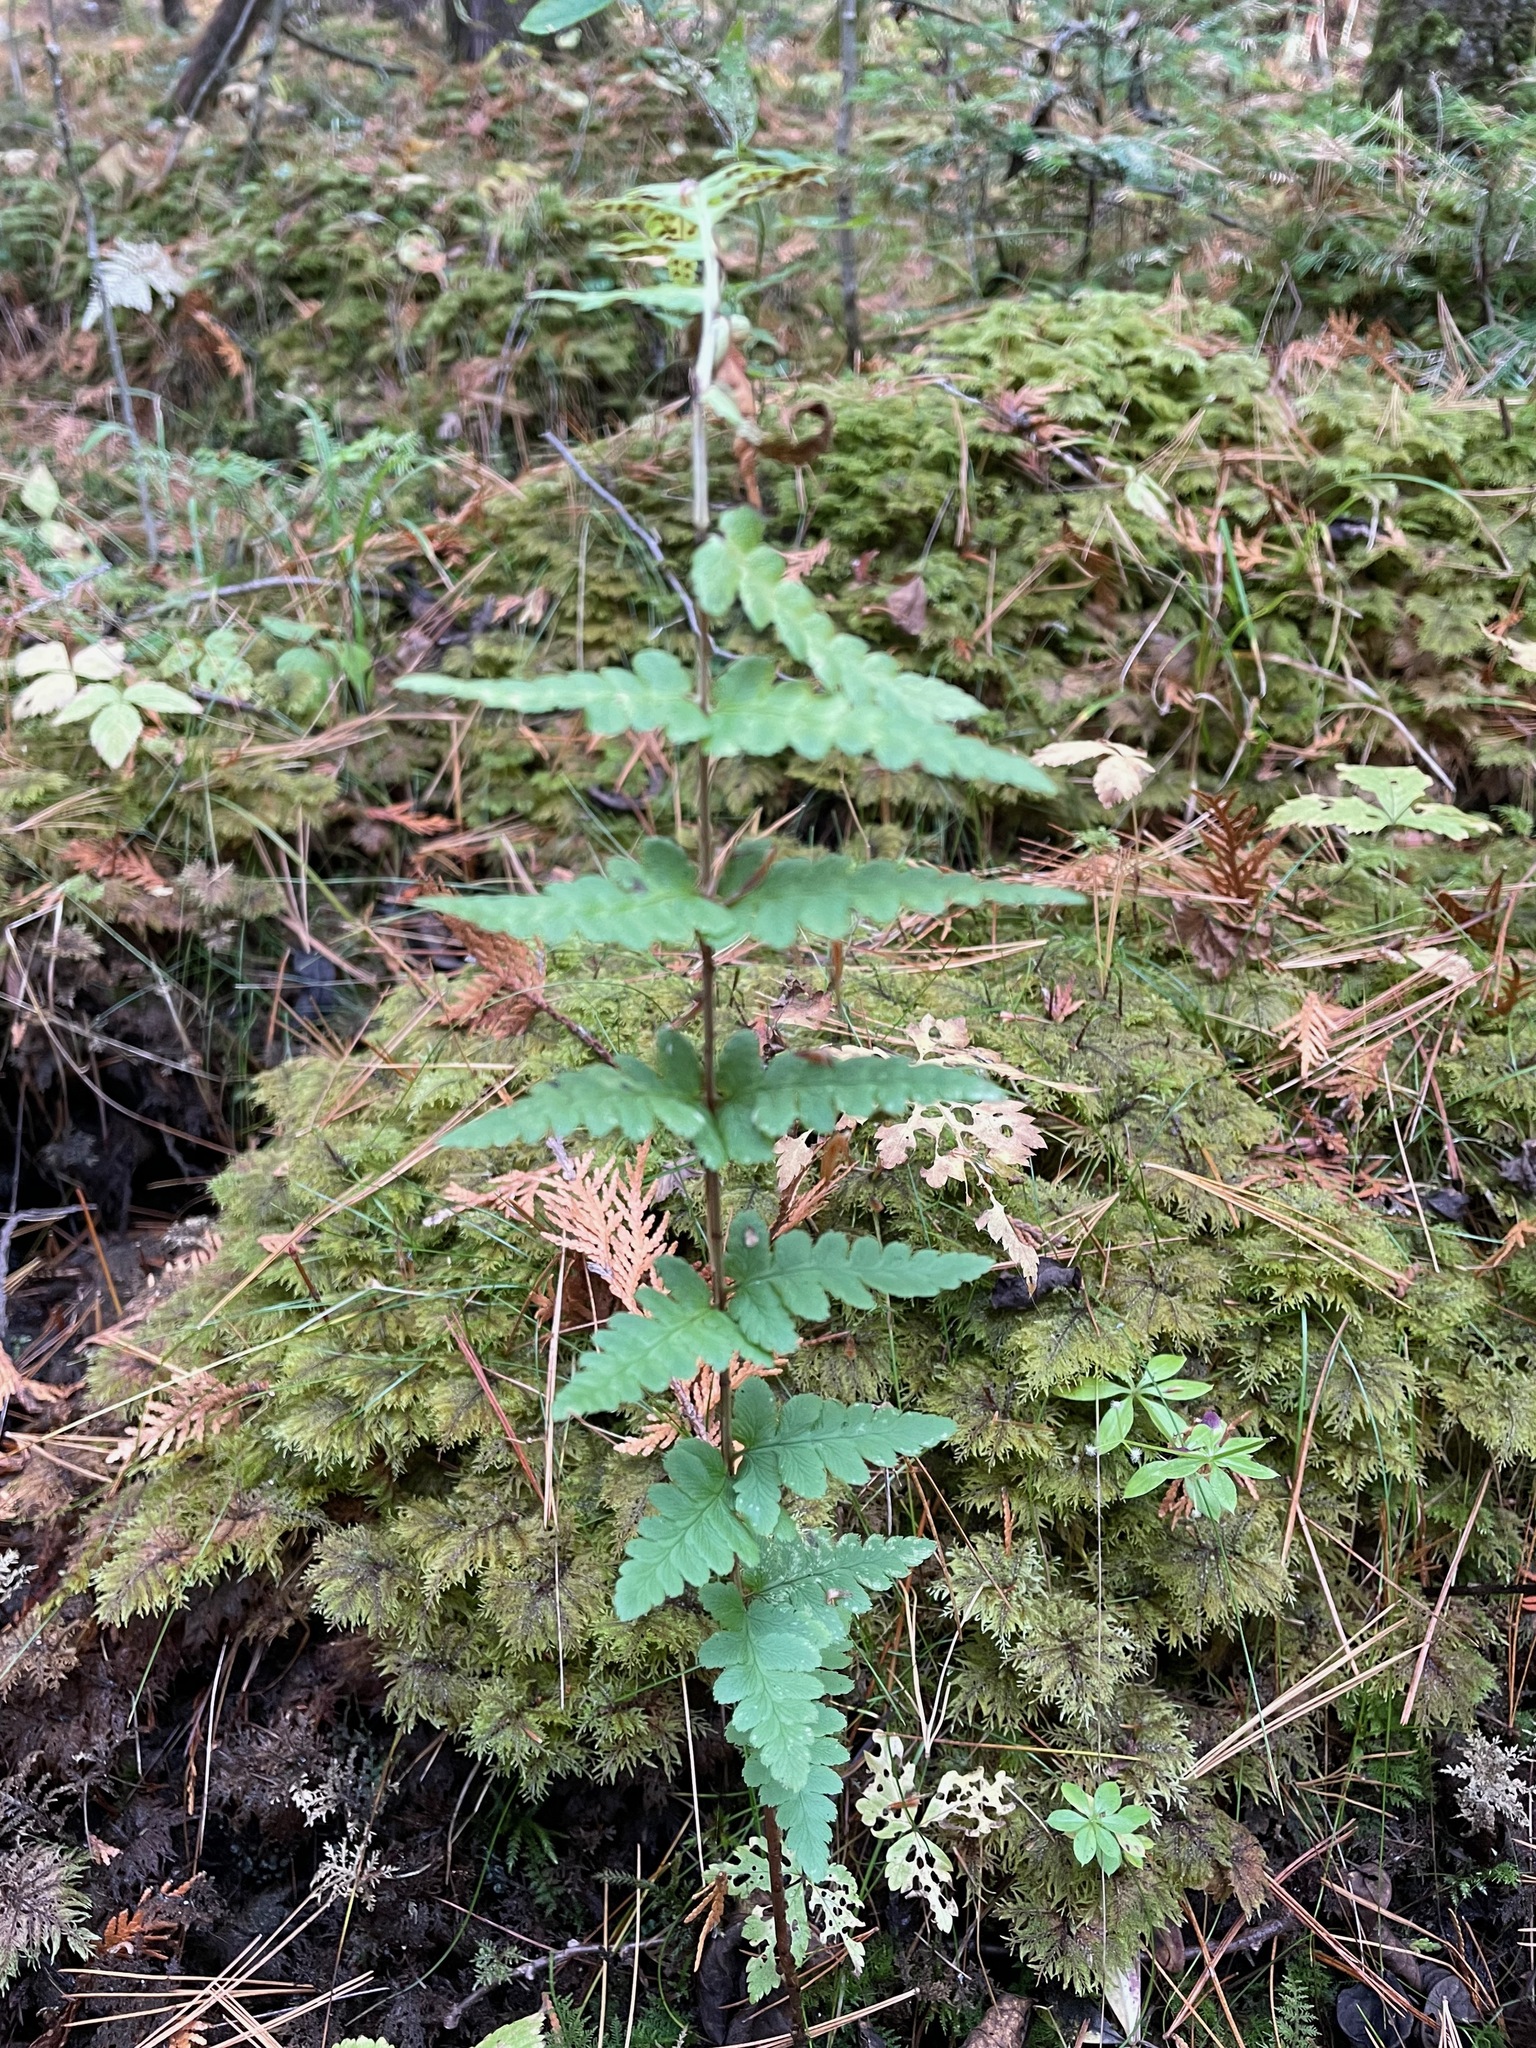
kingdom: Plantae
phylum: Tracheophyta
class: Polypodiopsida
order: Polypodiales
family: Dryopteridaceae
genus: Dryopteris
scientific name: Dryopteris cristata
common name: Crested wood fern
